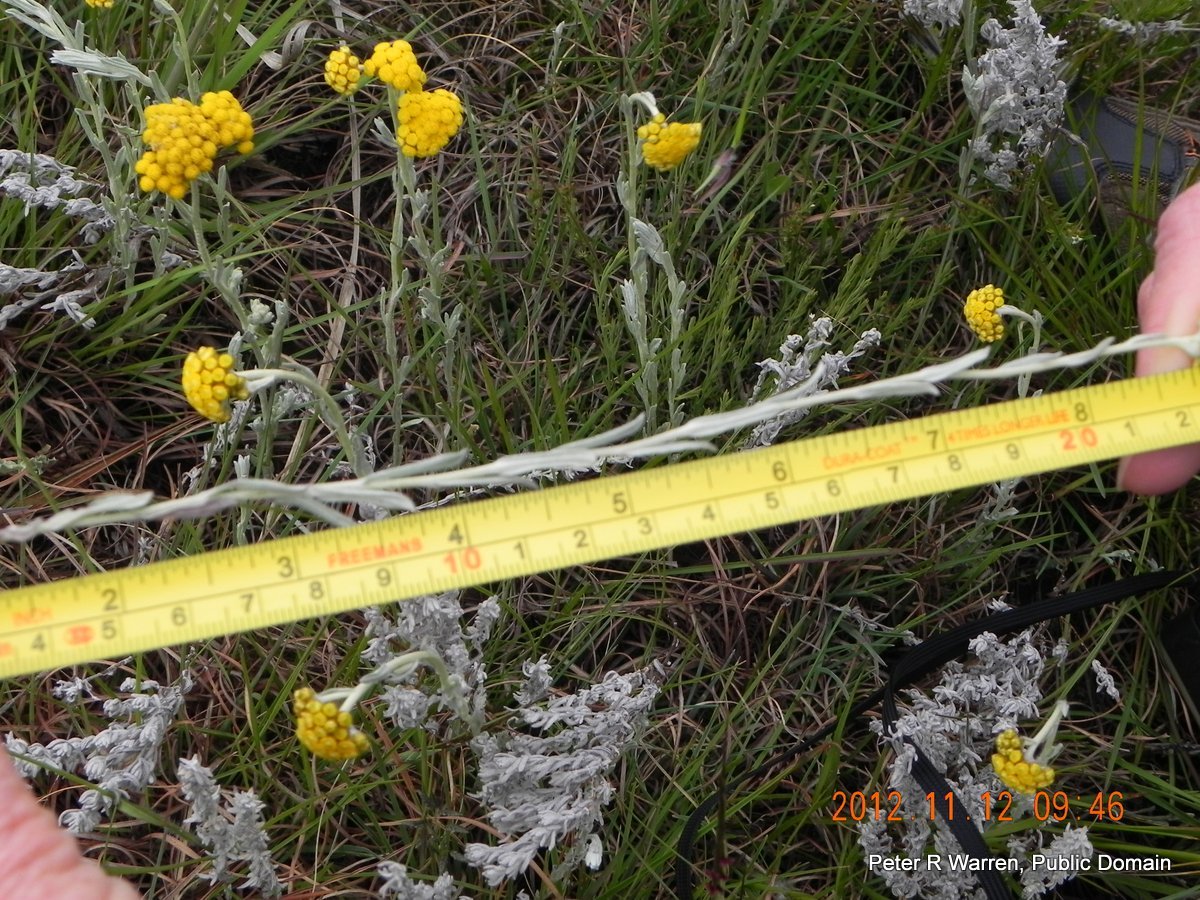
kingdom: Plantae
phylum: Tracheophyta
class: Magnoliopsida
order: Asterales
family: Asteraceae
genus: Helichrysum
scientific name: Helichrysum aureonitens
